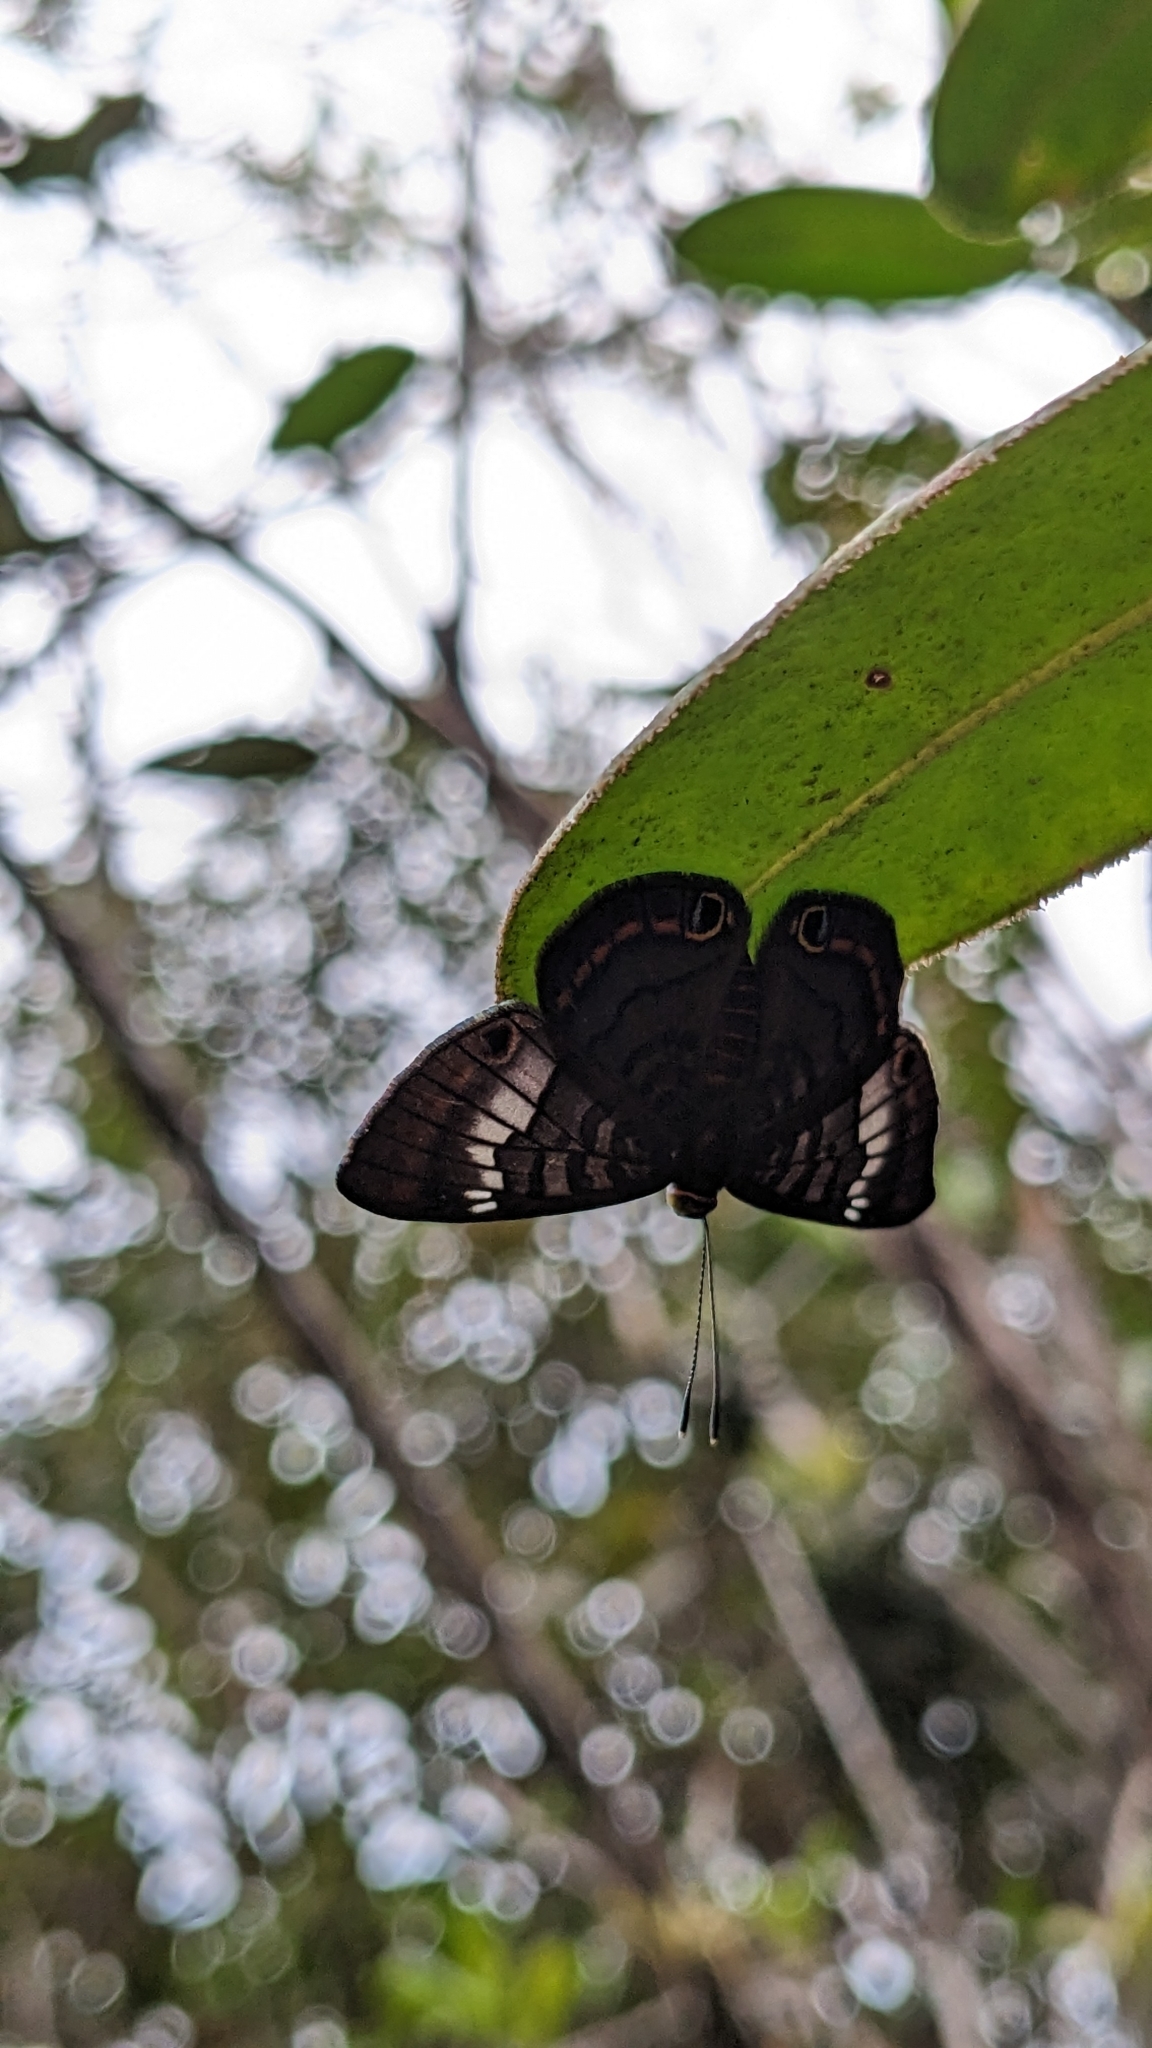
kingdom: Animalia
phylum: Arthropoda
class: Insecta
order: Lepidoptera
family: Riodinidae
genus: Dianesia
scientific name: Dianesia carteri
